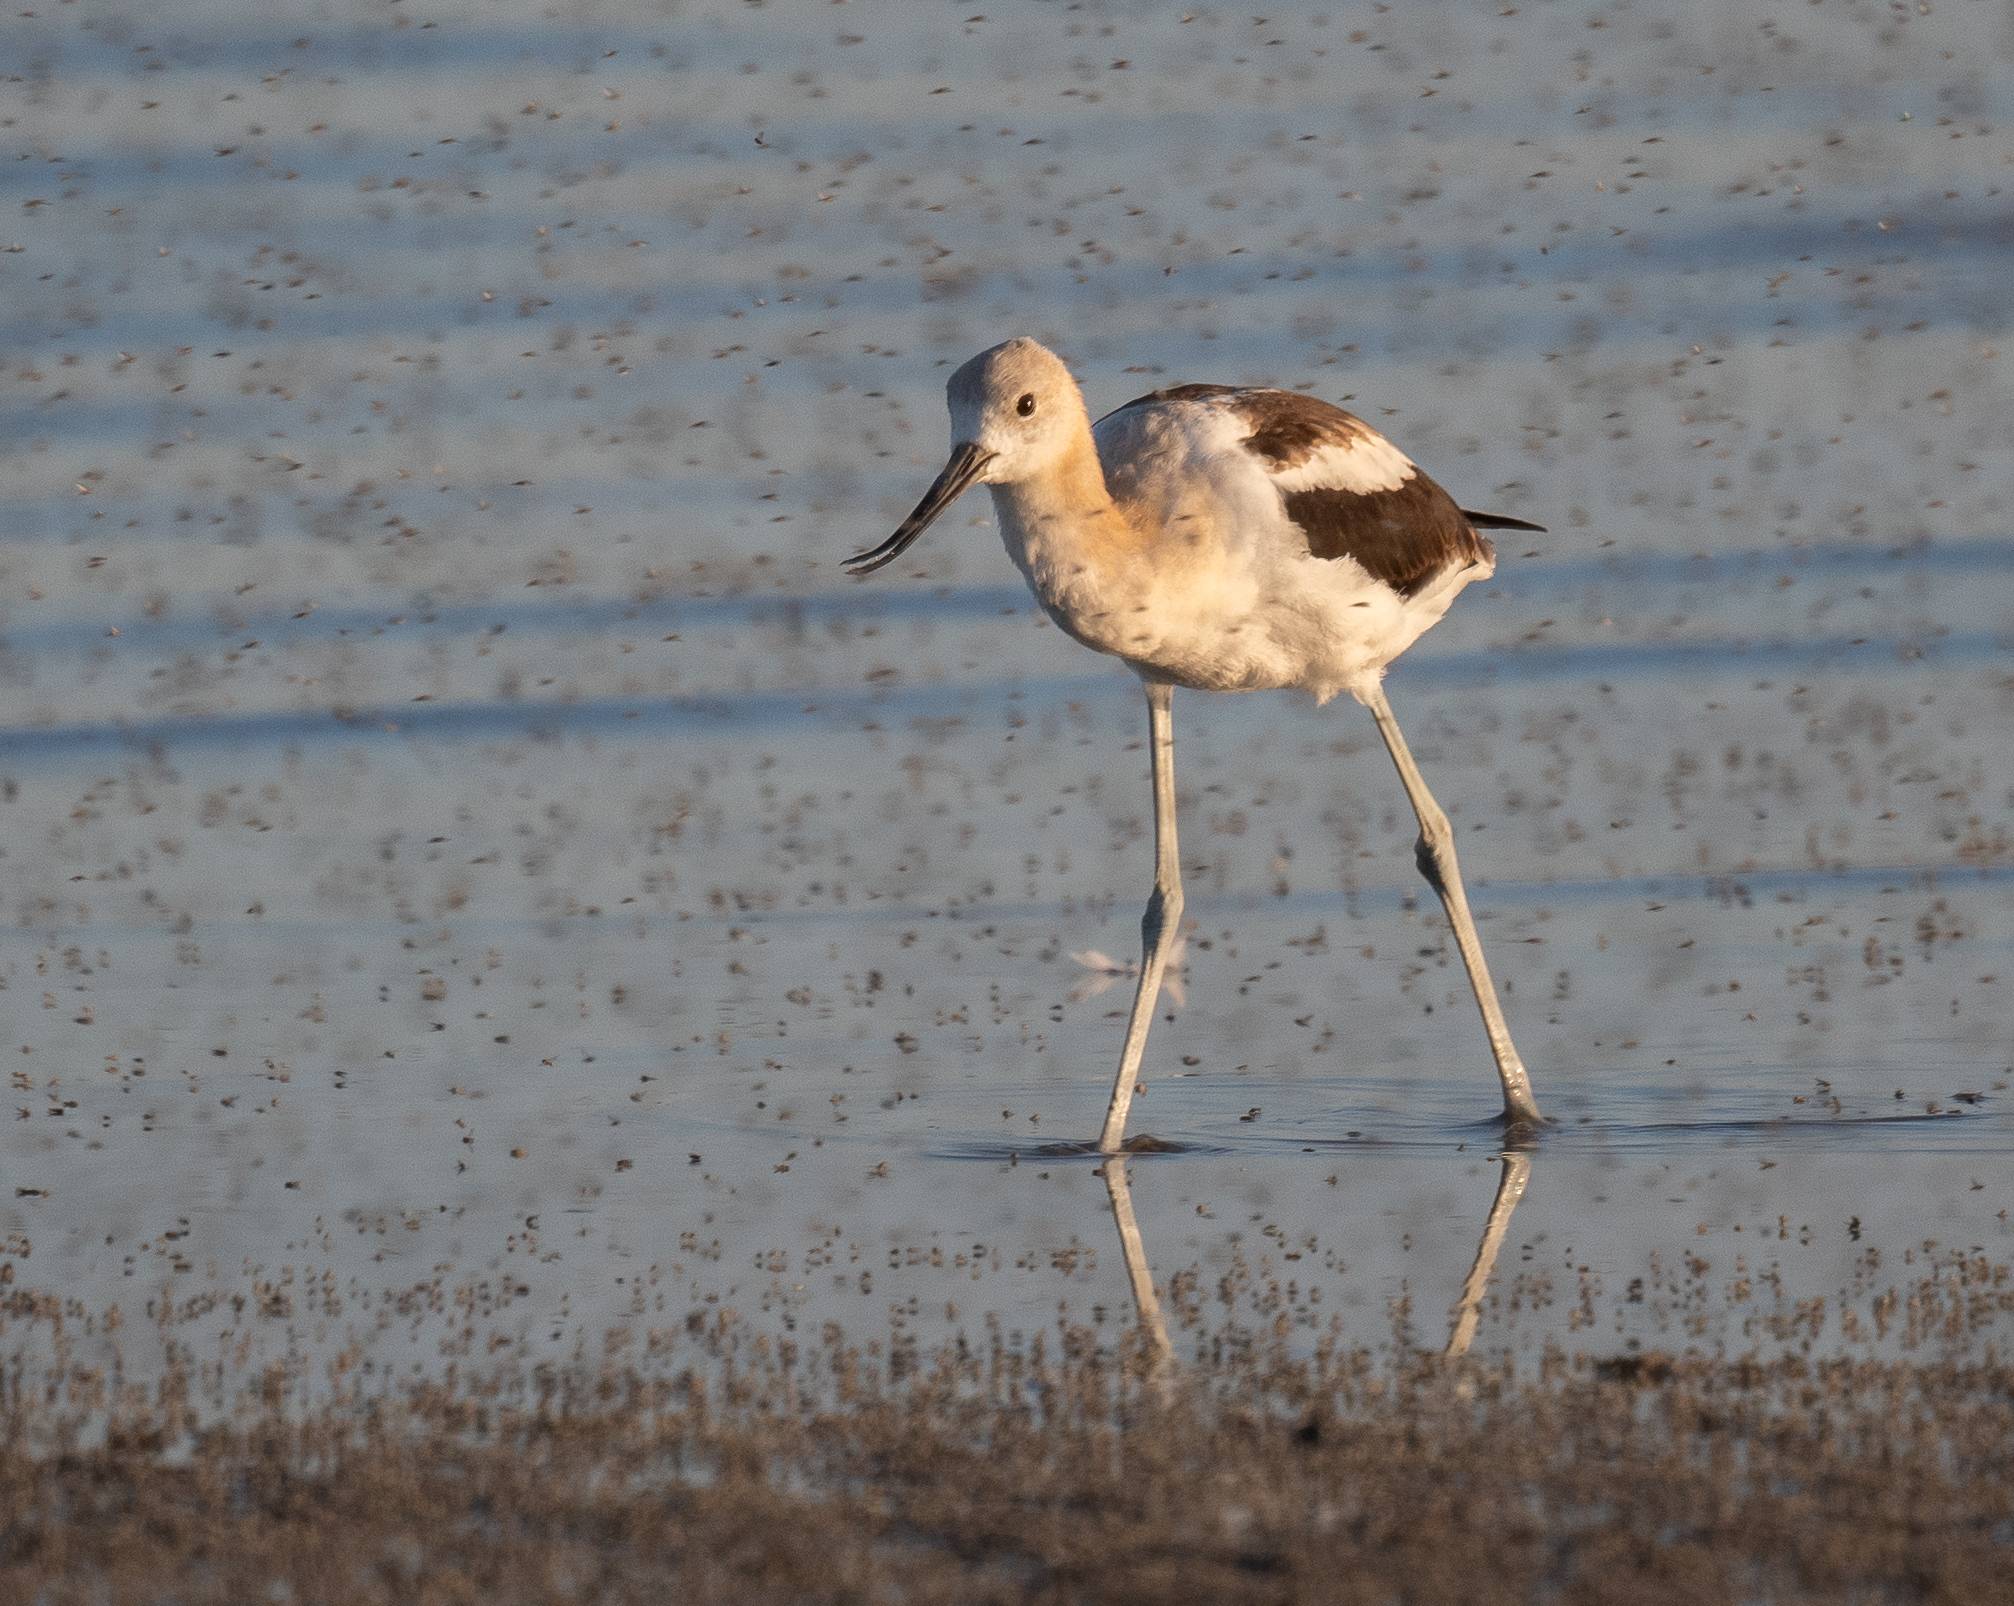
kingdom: Animalia
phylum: Chordata
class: Aves
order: Charadriiformes
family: Recurvirostridae
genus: Recurvirostra
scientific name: Recurvirostra americana
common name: American avocet
